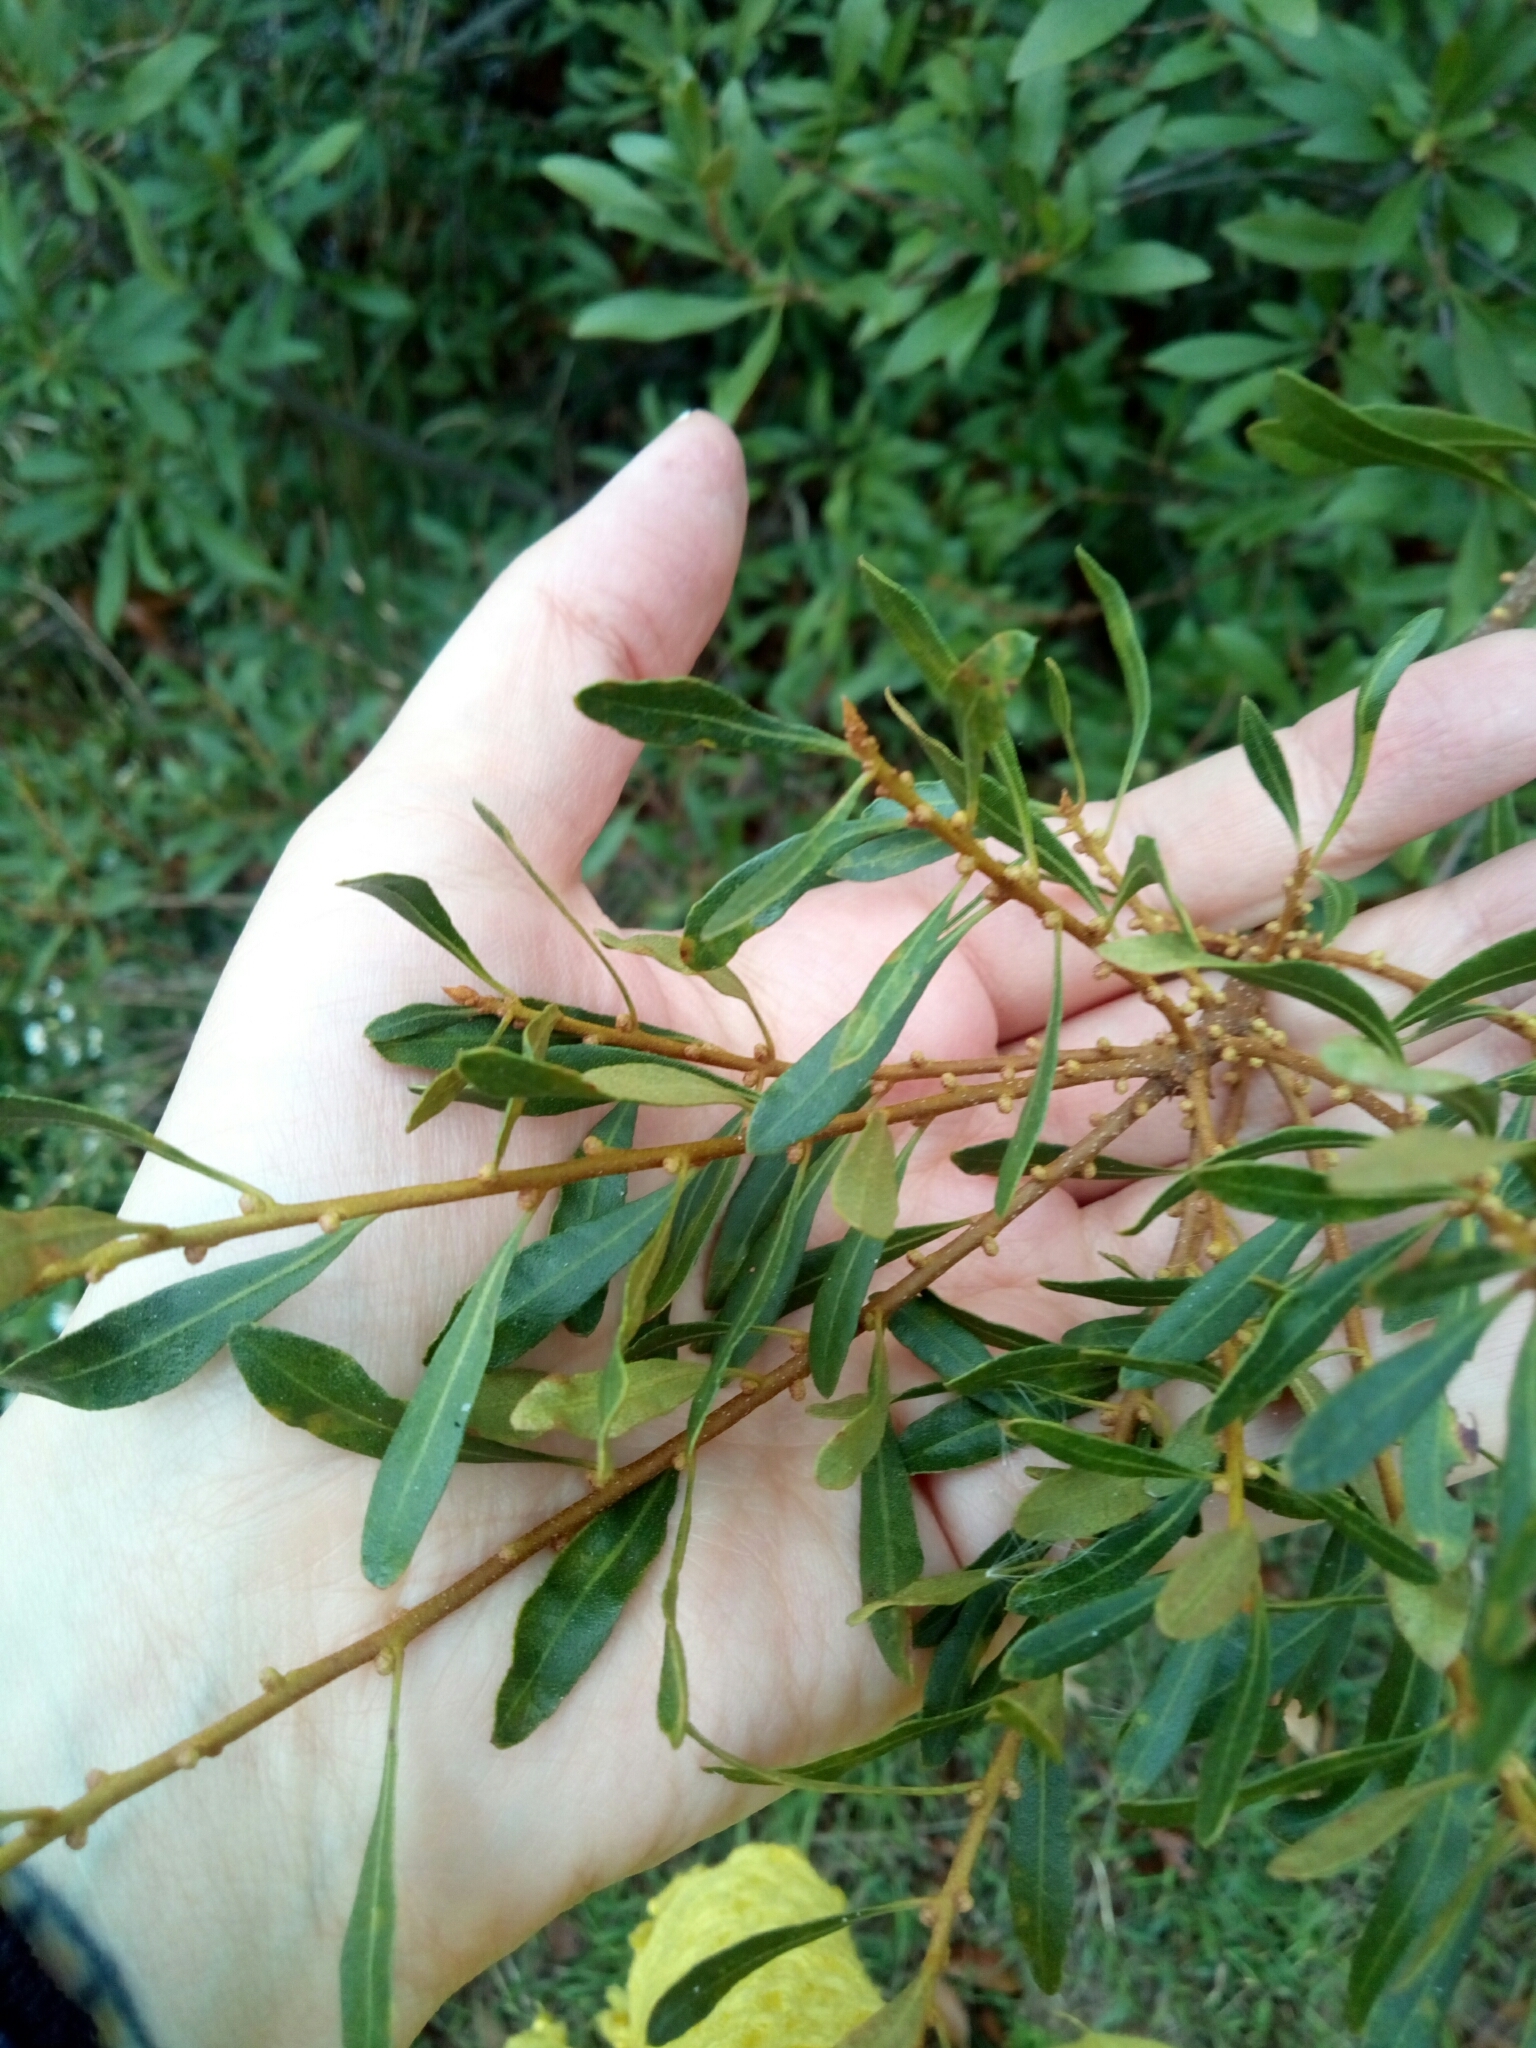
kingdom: Plantae
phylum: Tracheophyta
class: Magnoliopsida
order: Fagales
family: Myricaceae
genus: Morella
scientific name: Morella cerifera
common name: Wax myrtle
